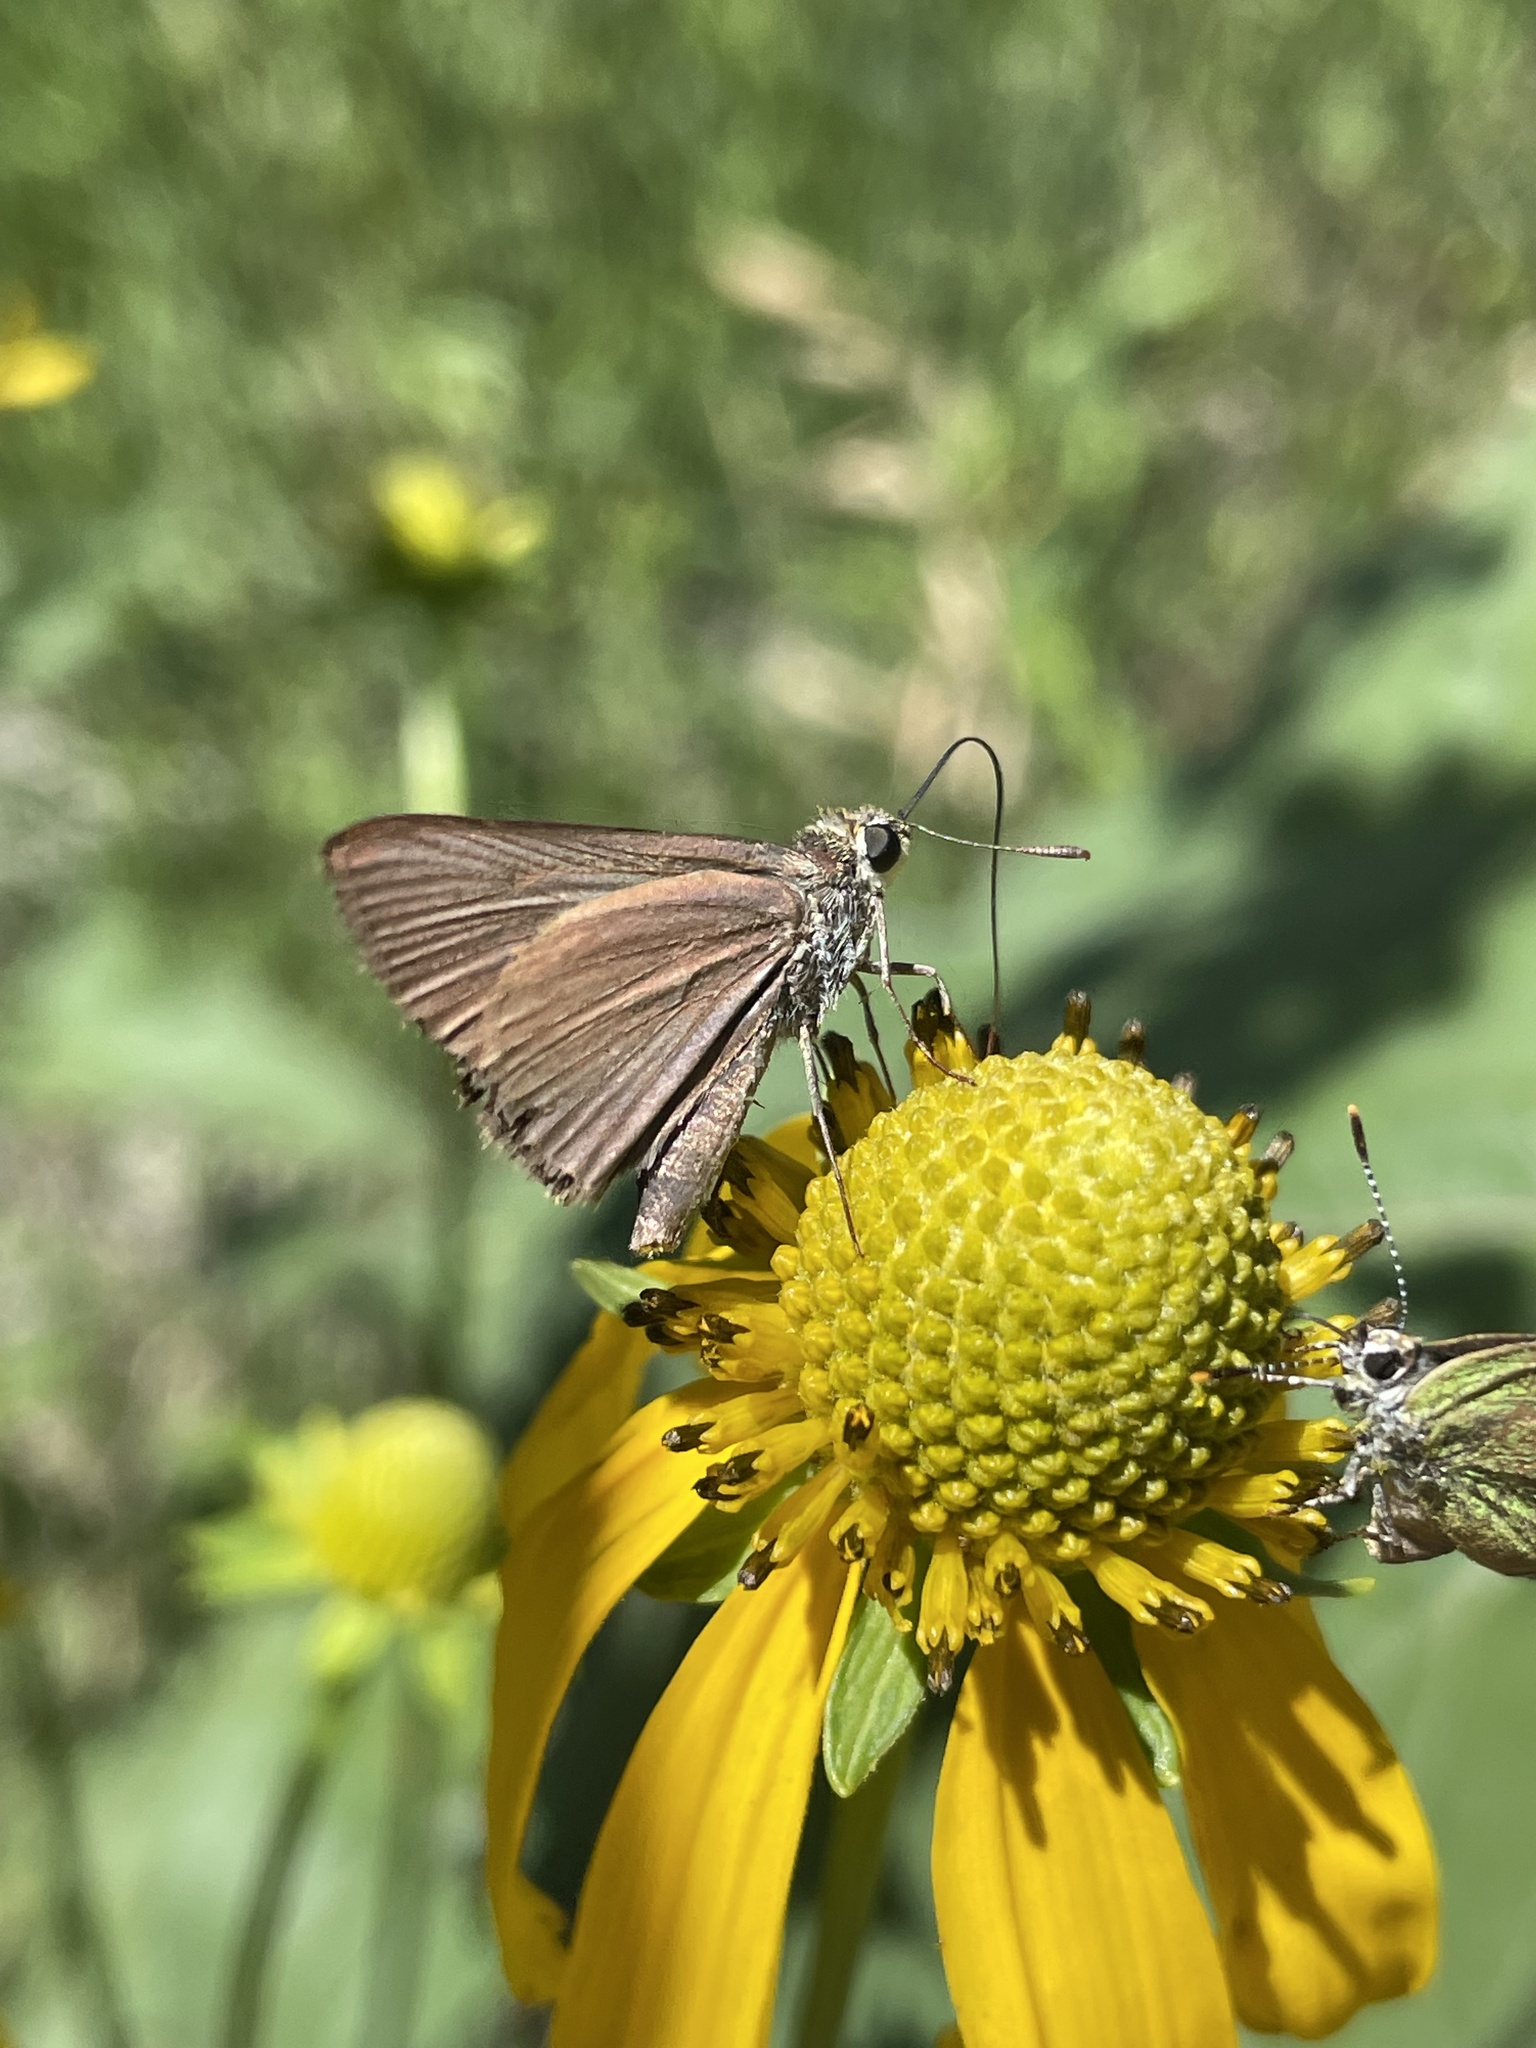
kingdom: Animalia
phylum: Arthropoda
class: Insecta
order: Lepidoptera
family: Hesperiidae
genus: Euphyes
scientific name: Euphyes vestris
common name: Dun skipper
